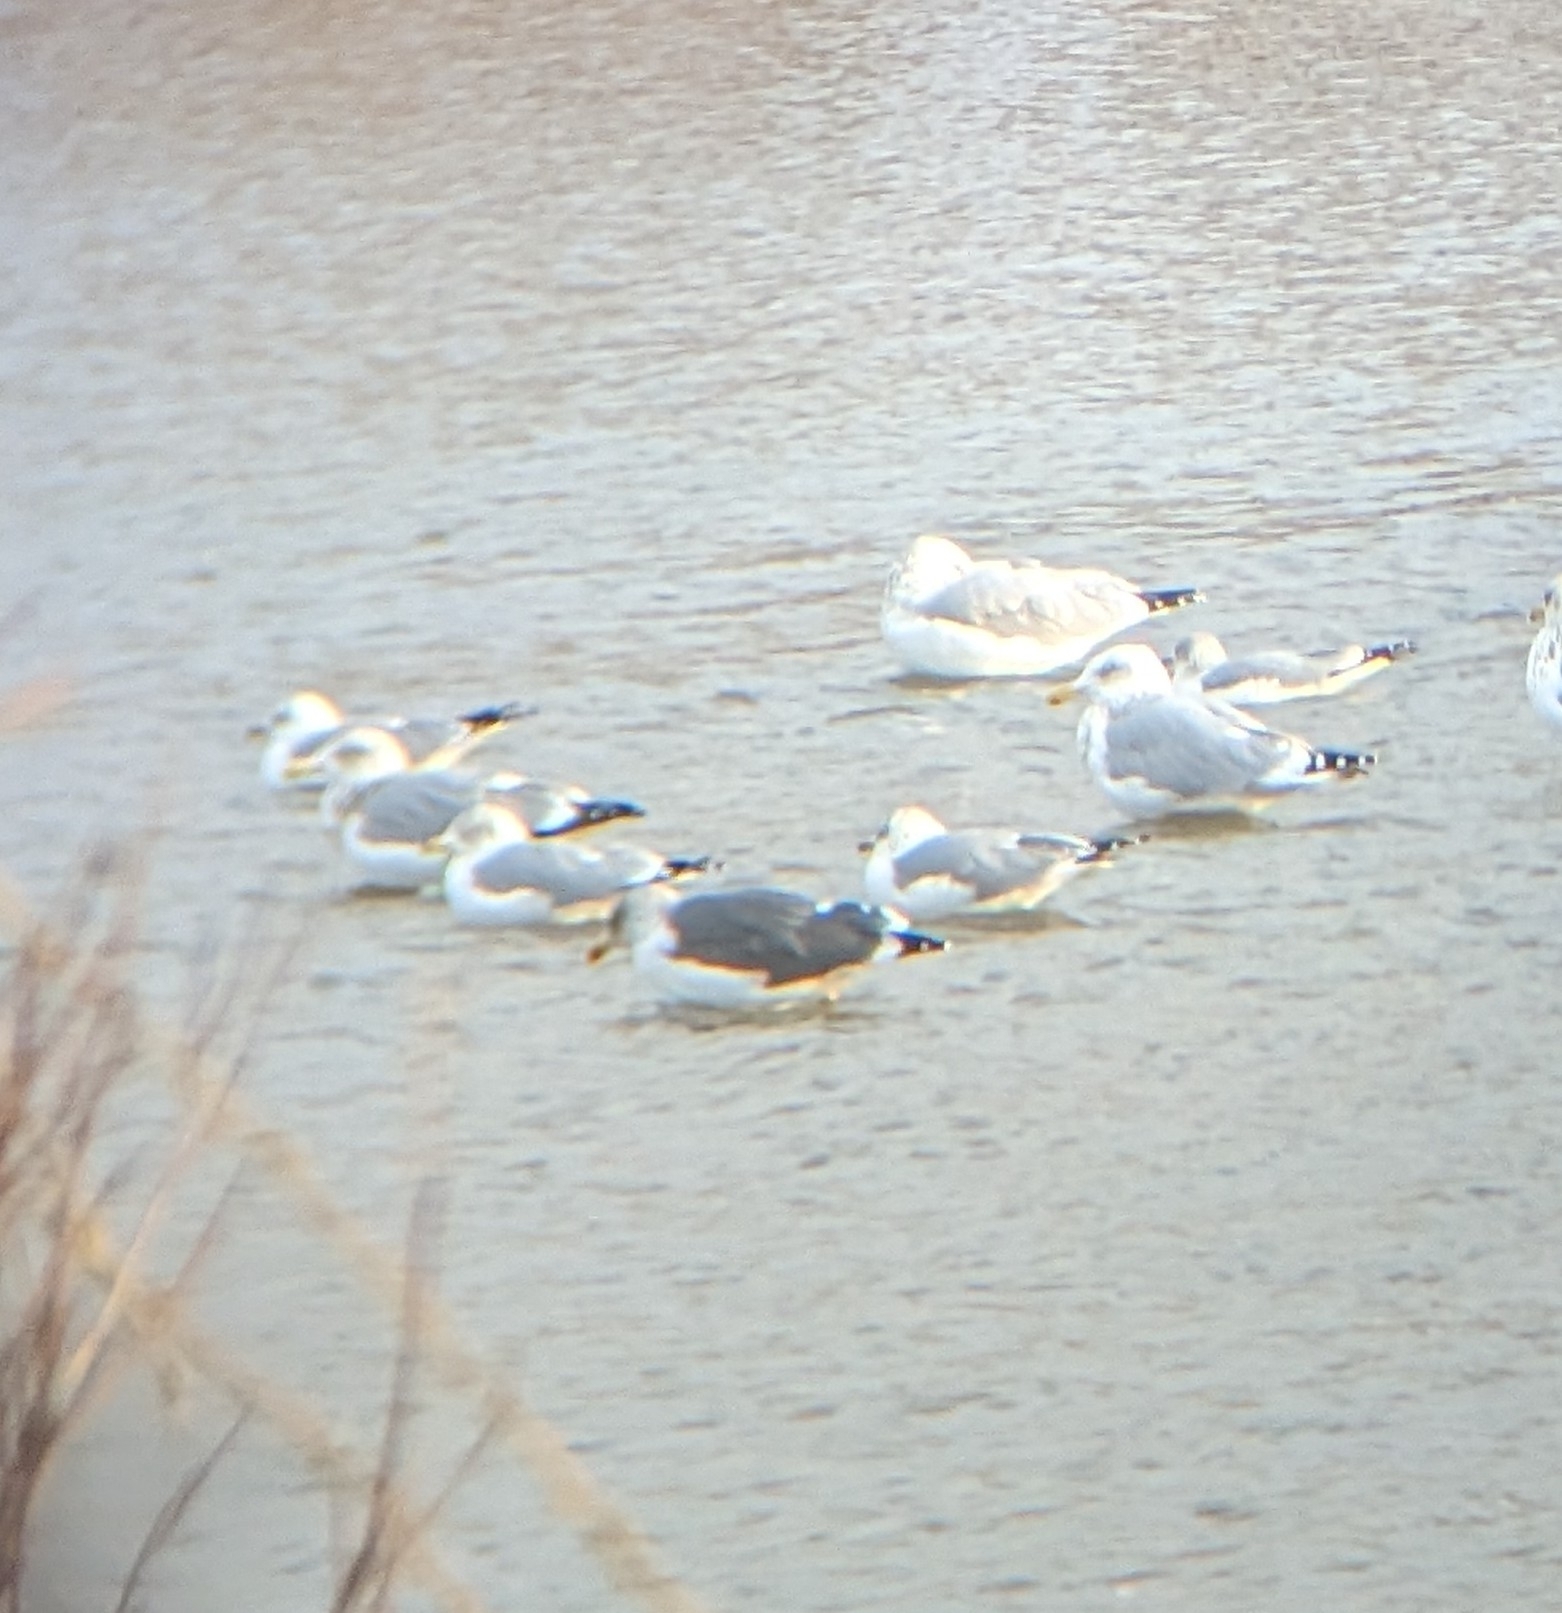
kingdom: Animalia
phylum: Chordata
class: Aves
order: Charadriiformes
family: Laridae
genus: Larus
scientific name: Larus fuscus
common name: Lesser black-backed gull
